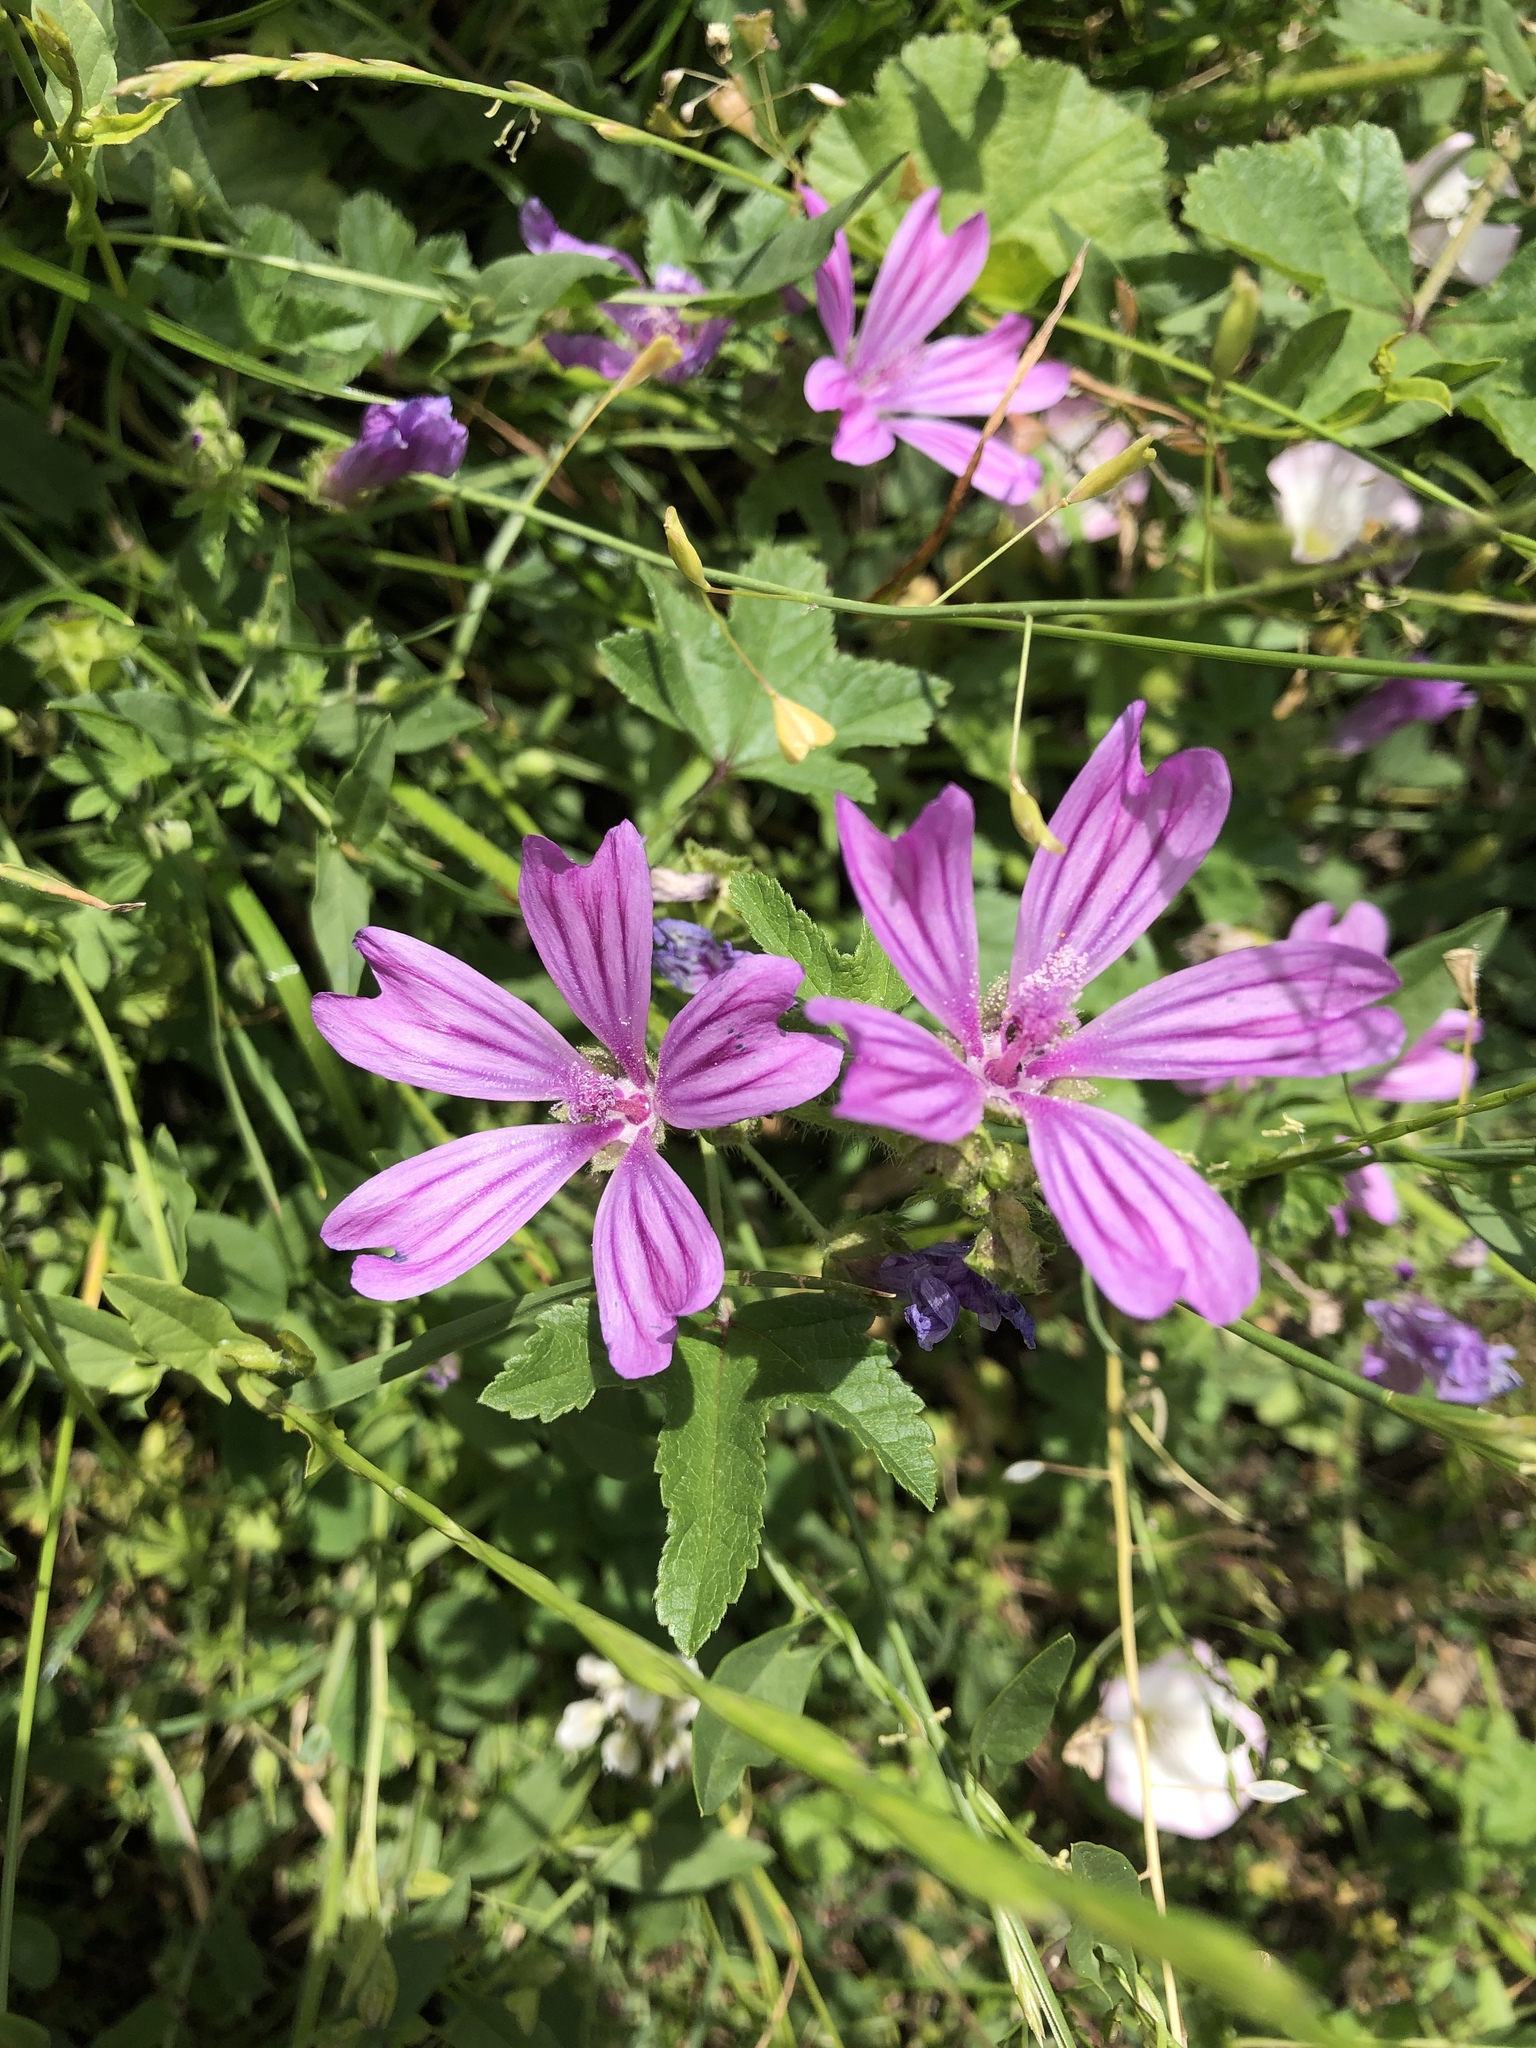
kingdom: Plantae
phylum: Tracheophyta
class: Magnoliopsida
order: Malvales
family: Malvaceae
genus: Malva
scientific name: Malva sylvestris
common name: Common mallow
